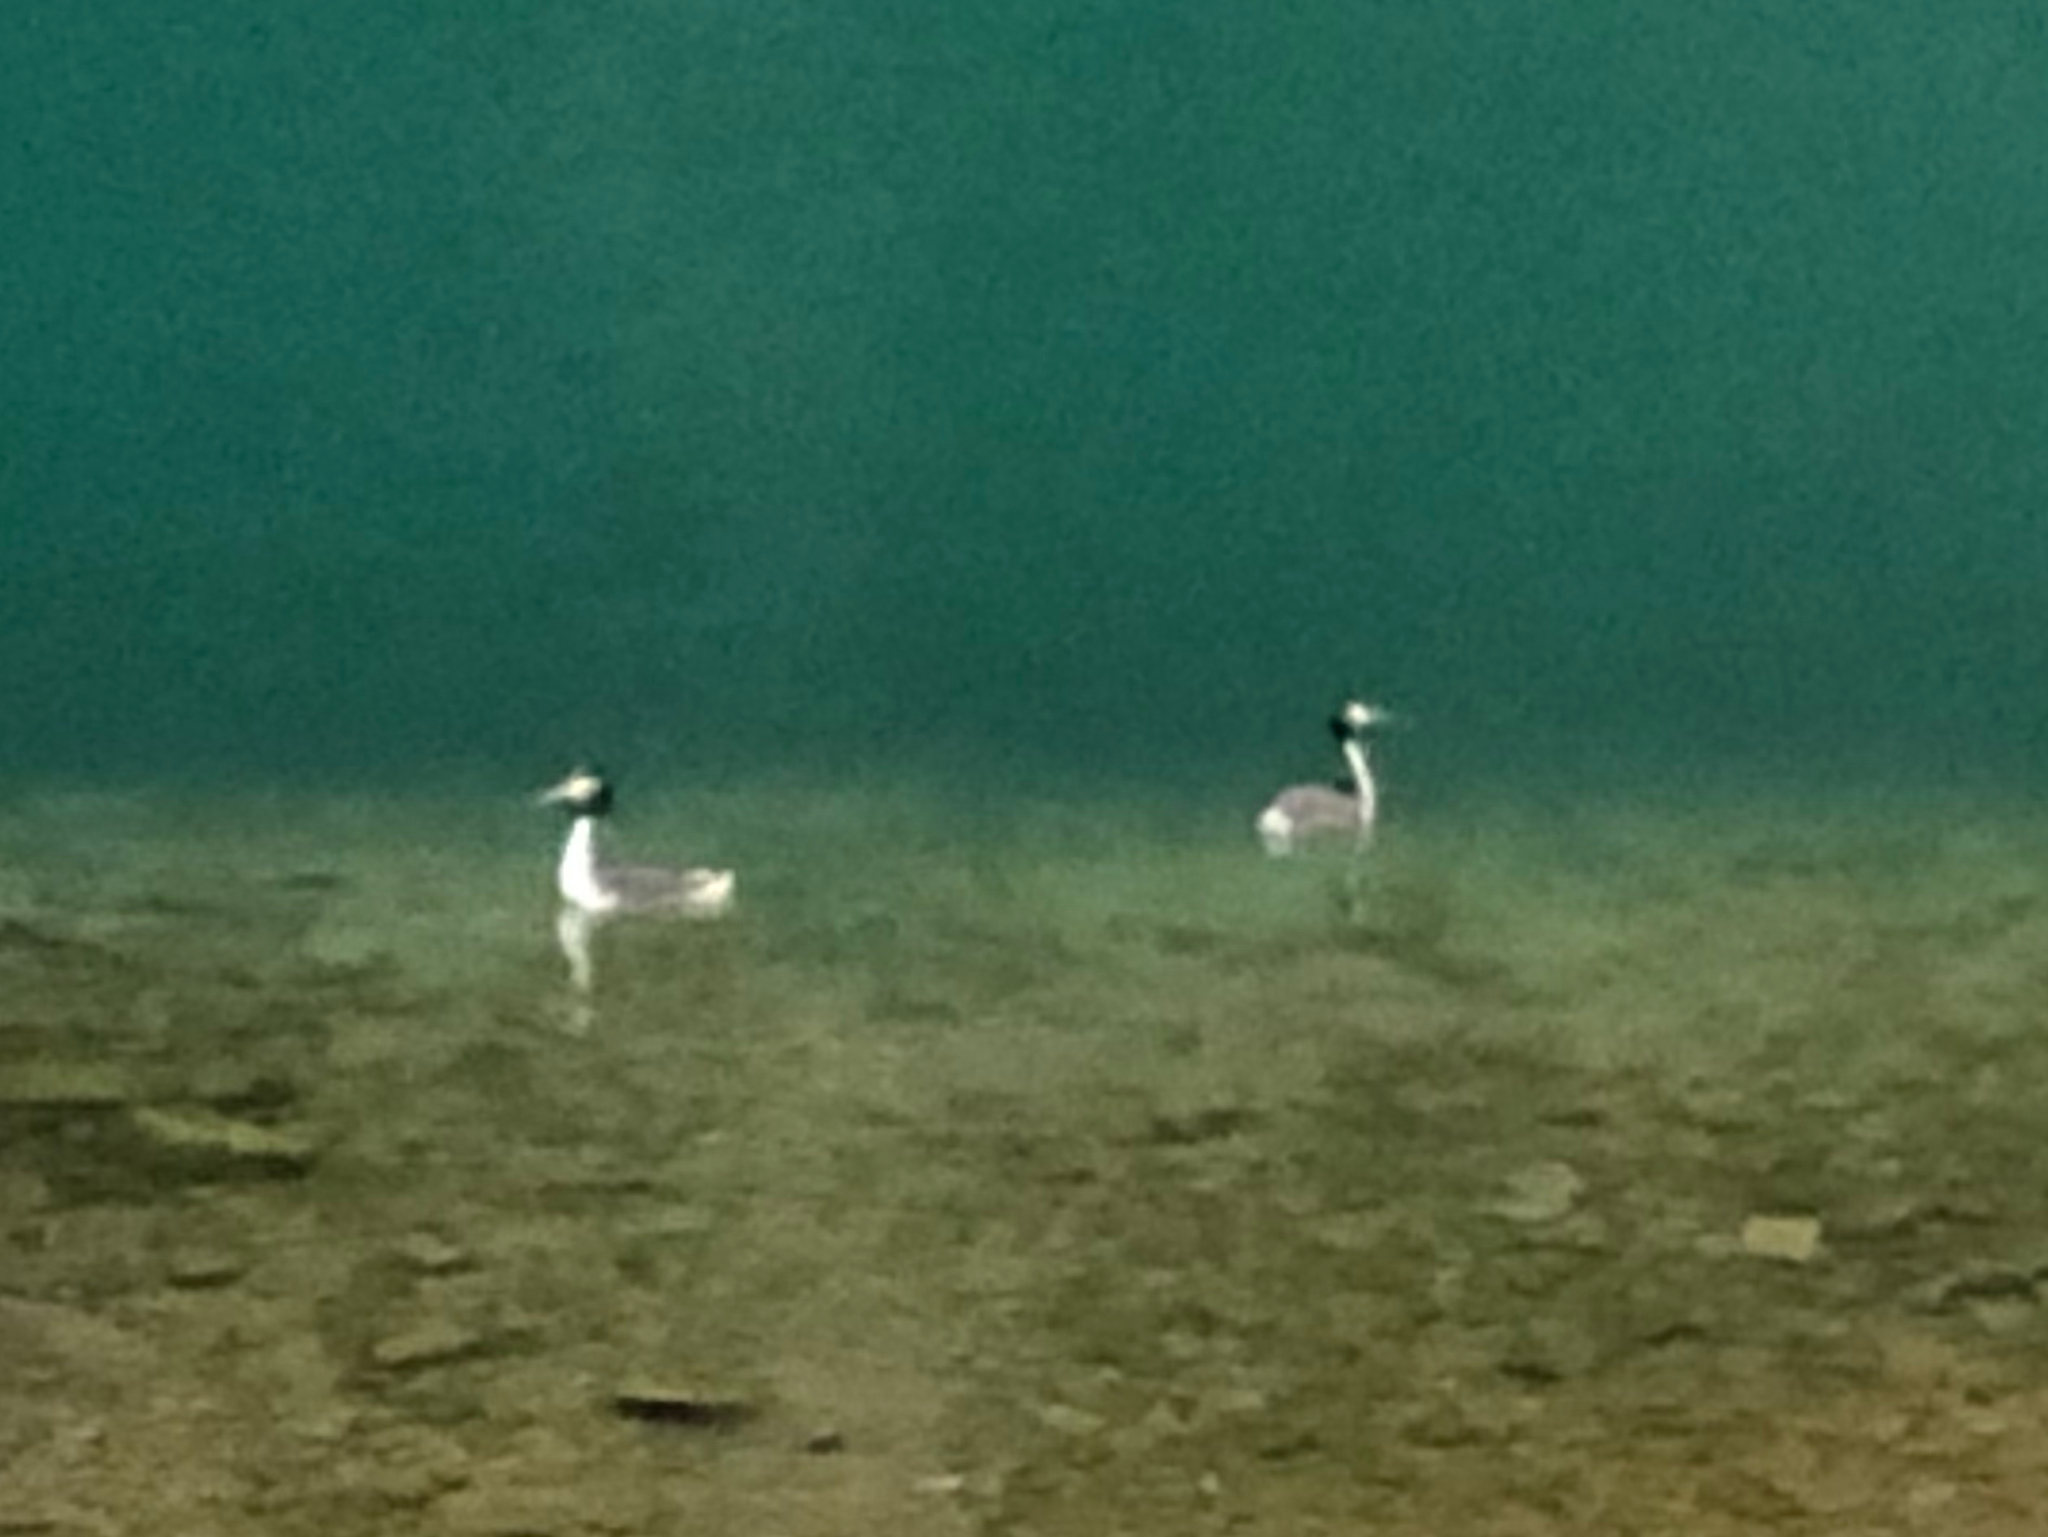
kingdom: Animalia
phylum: Chordata
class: Aves
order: Podicipediformes
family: Podicipedidae
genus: Podiceps
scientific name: Podiceps cristatus
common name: Great crested grebe
